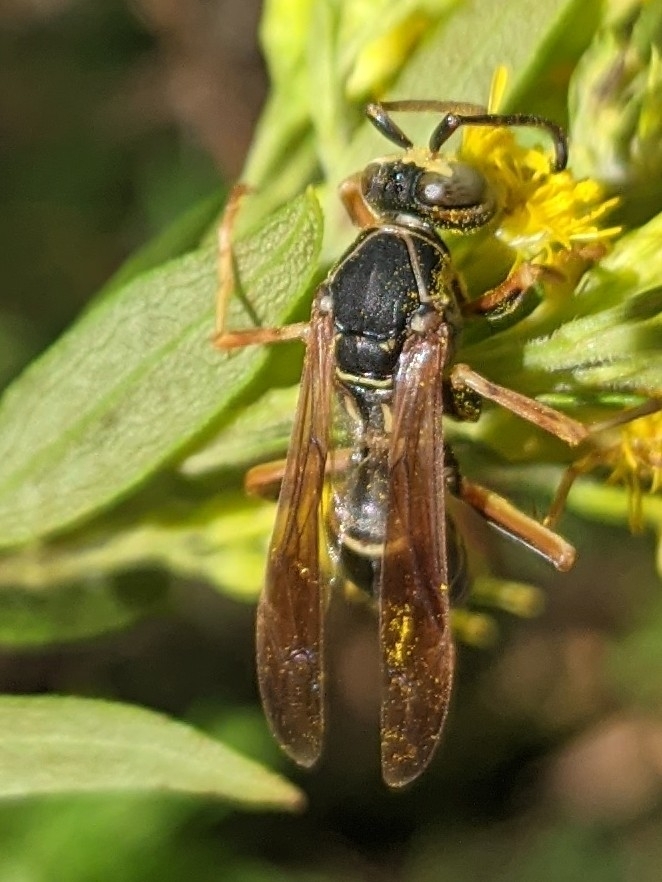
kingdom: Animalia
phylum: Arthropoda
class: Insecta
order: Hymenoptera
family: Eumenidae
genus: Polistes
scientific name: Polistes fuscatus
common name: Dark paper wasp
